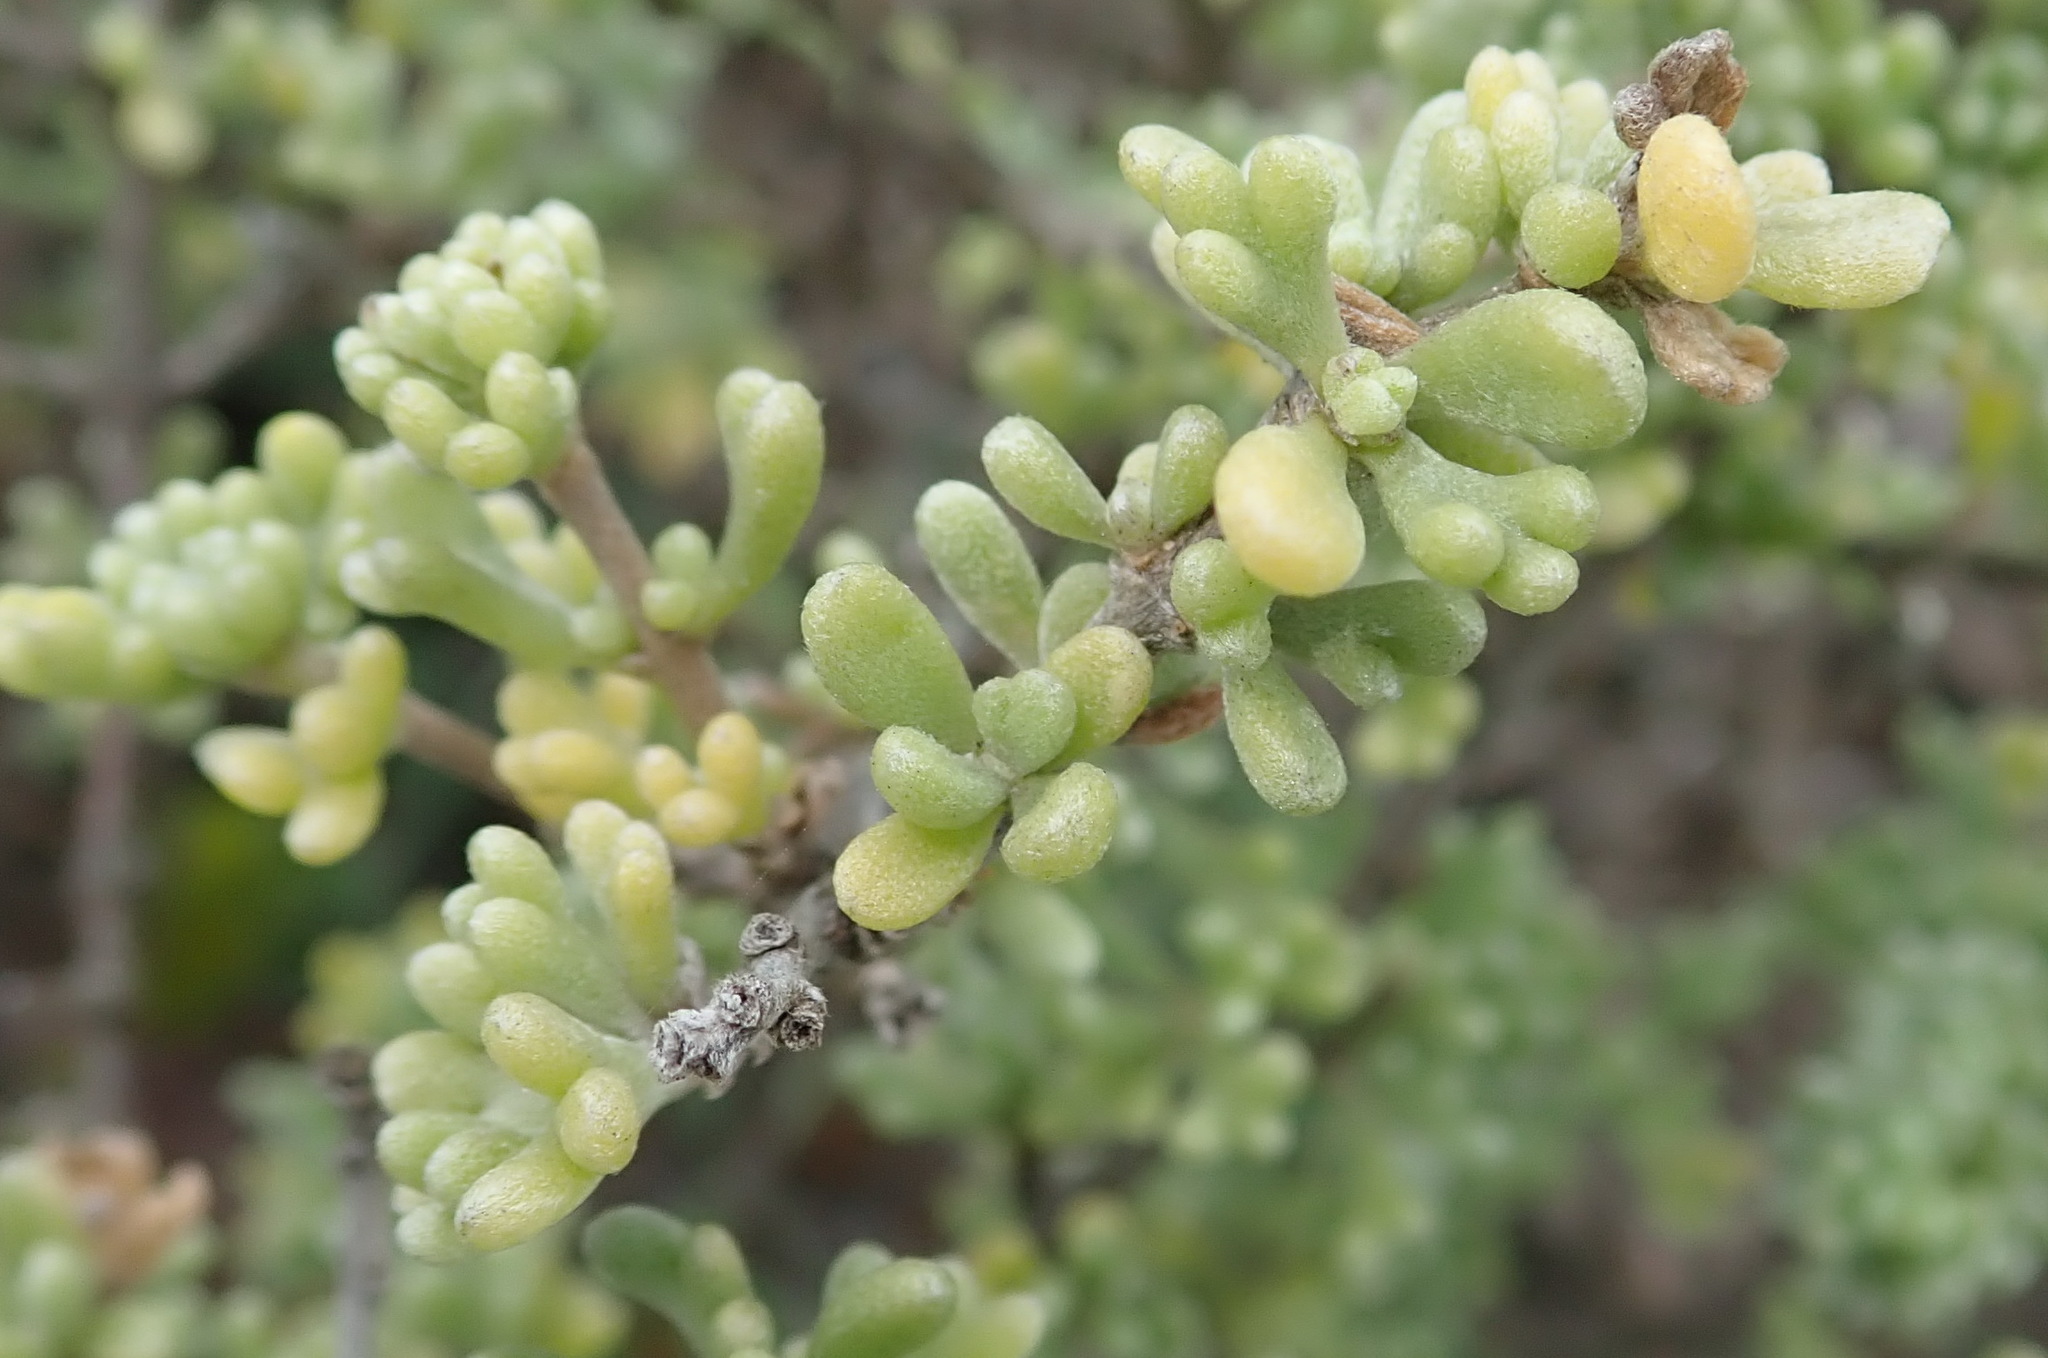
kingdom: Plantae
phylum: Tracheophyta
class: Magnoliopsida
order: Asterales
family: Asteraceae
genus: Eriocephalus
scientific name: Eriocephalus africanus
